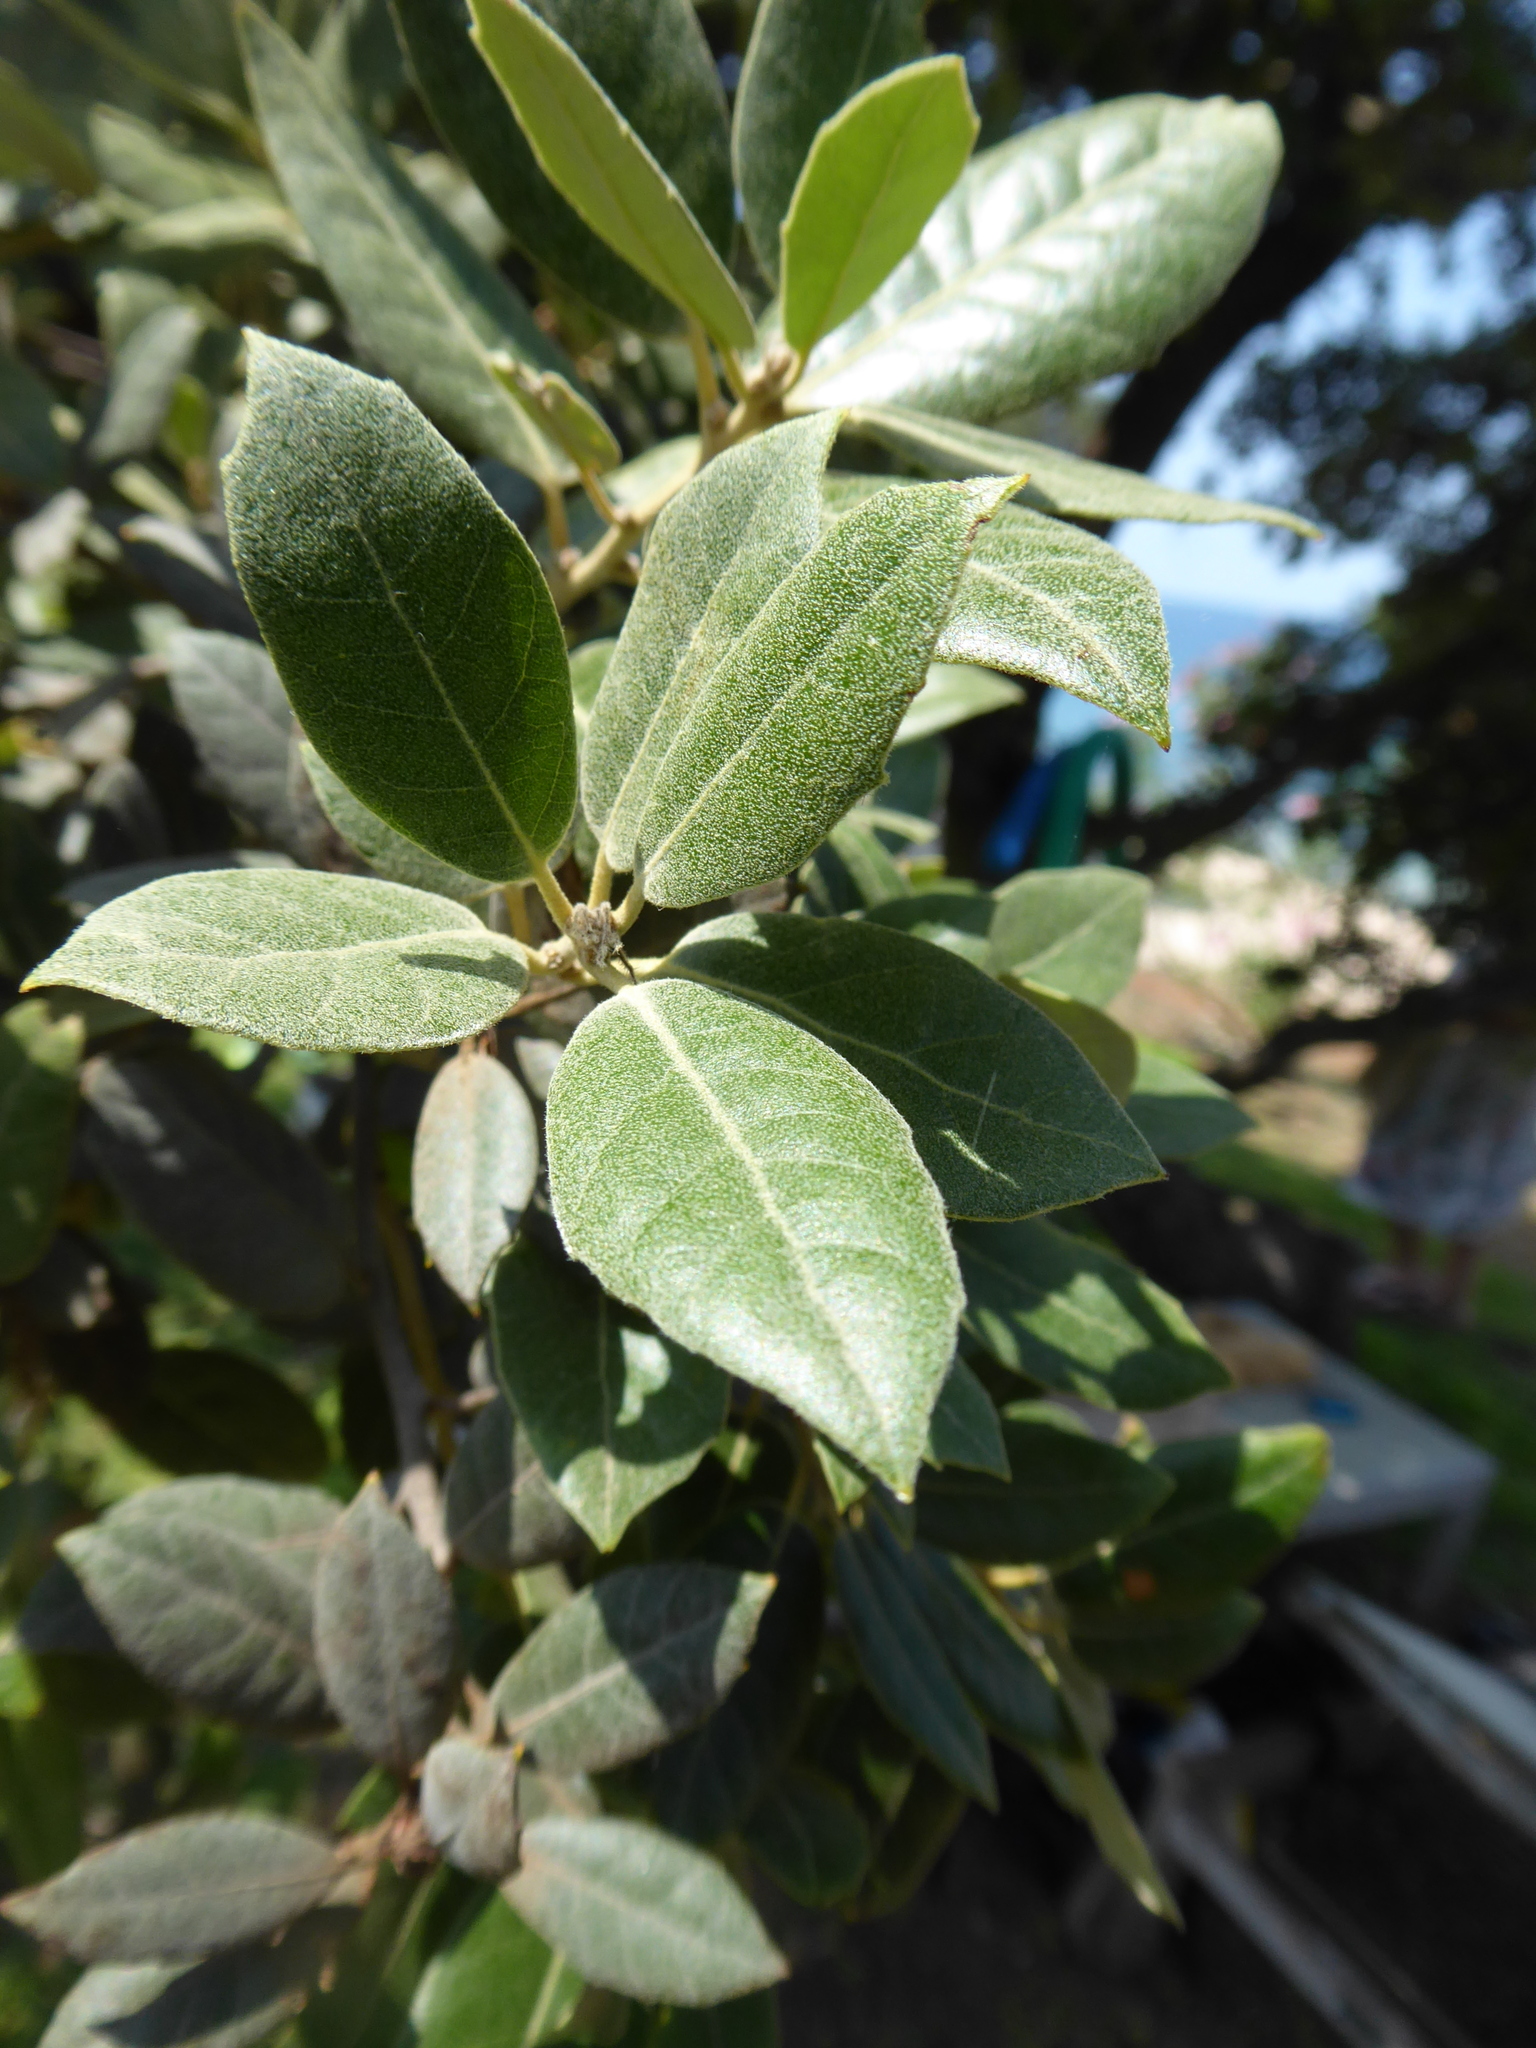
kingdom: Plantae
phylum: Tracheophyta
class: Magnoliopsida
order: Fagales
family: Fagaceae
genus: Quercus
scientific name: Quercus ilex
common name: Evergreen oak
